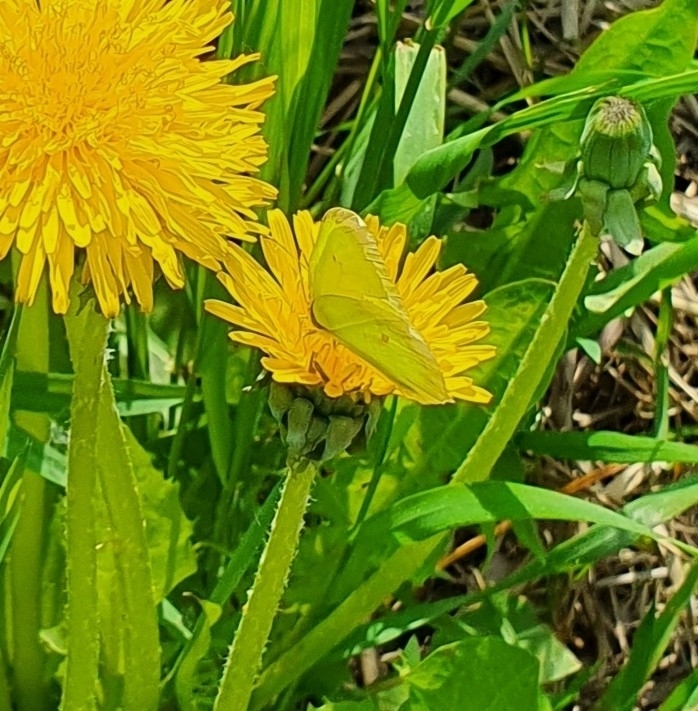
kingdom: Animalia
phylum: Arthropoda
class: Insecta
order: Lepidoptera
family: Pieridae
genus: Gonepteryx
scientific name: Gonepteryx rhamni
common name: Brimstone
